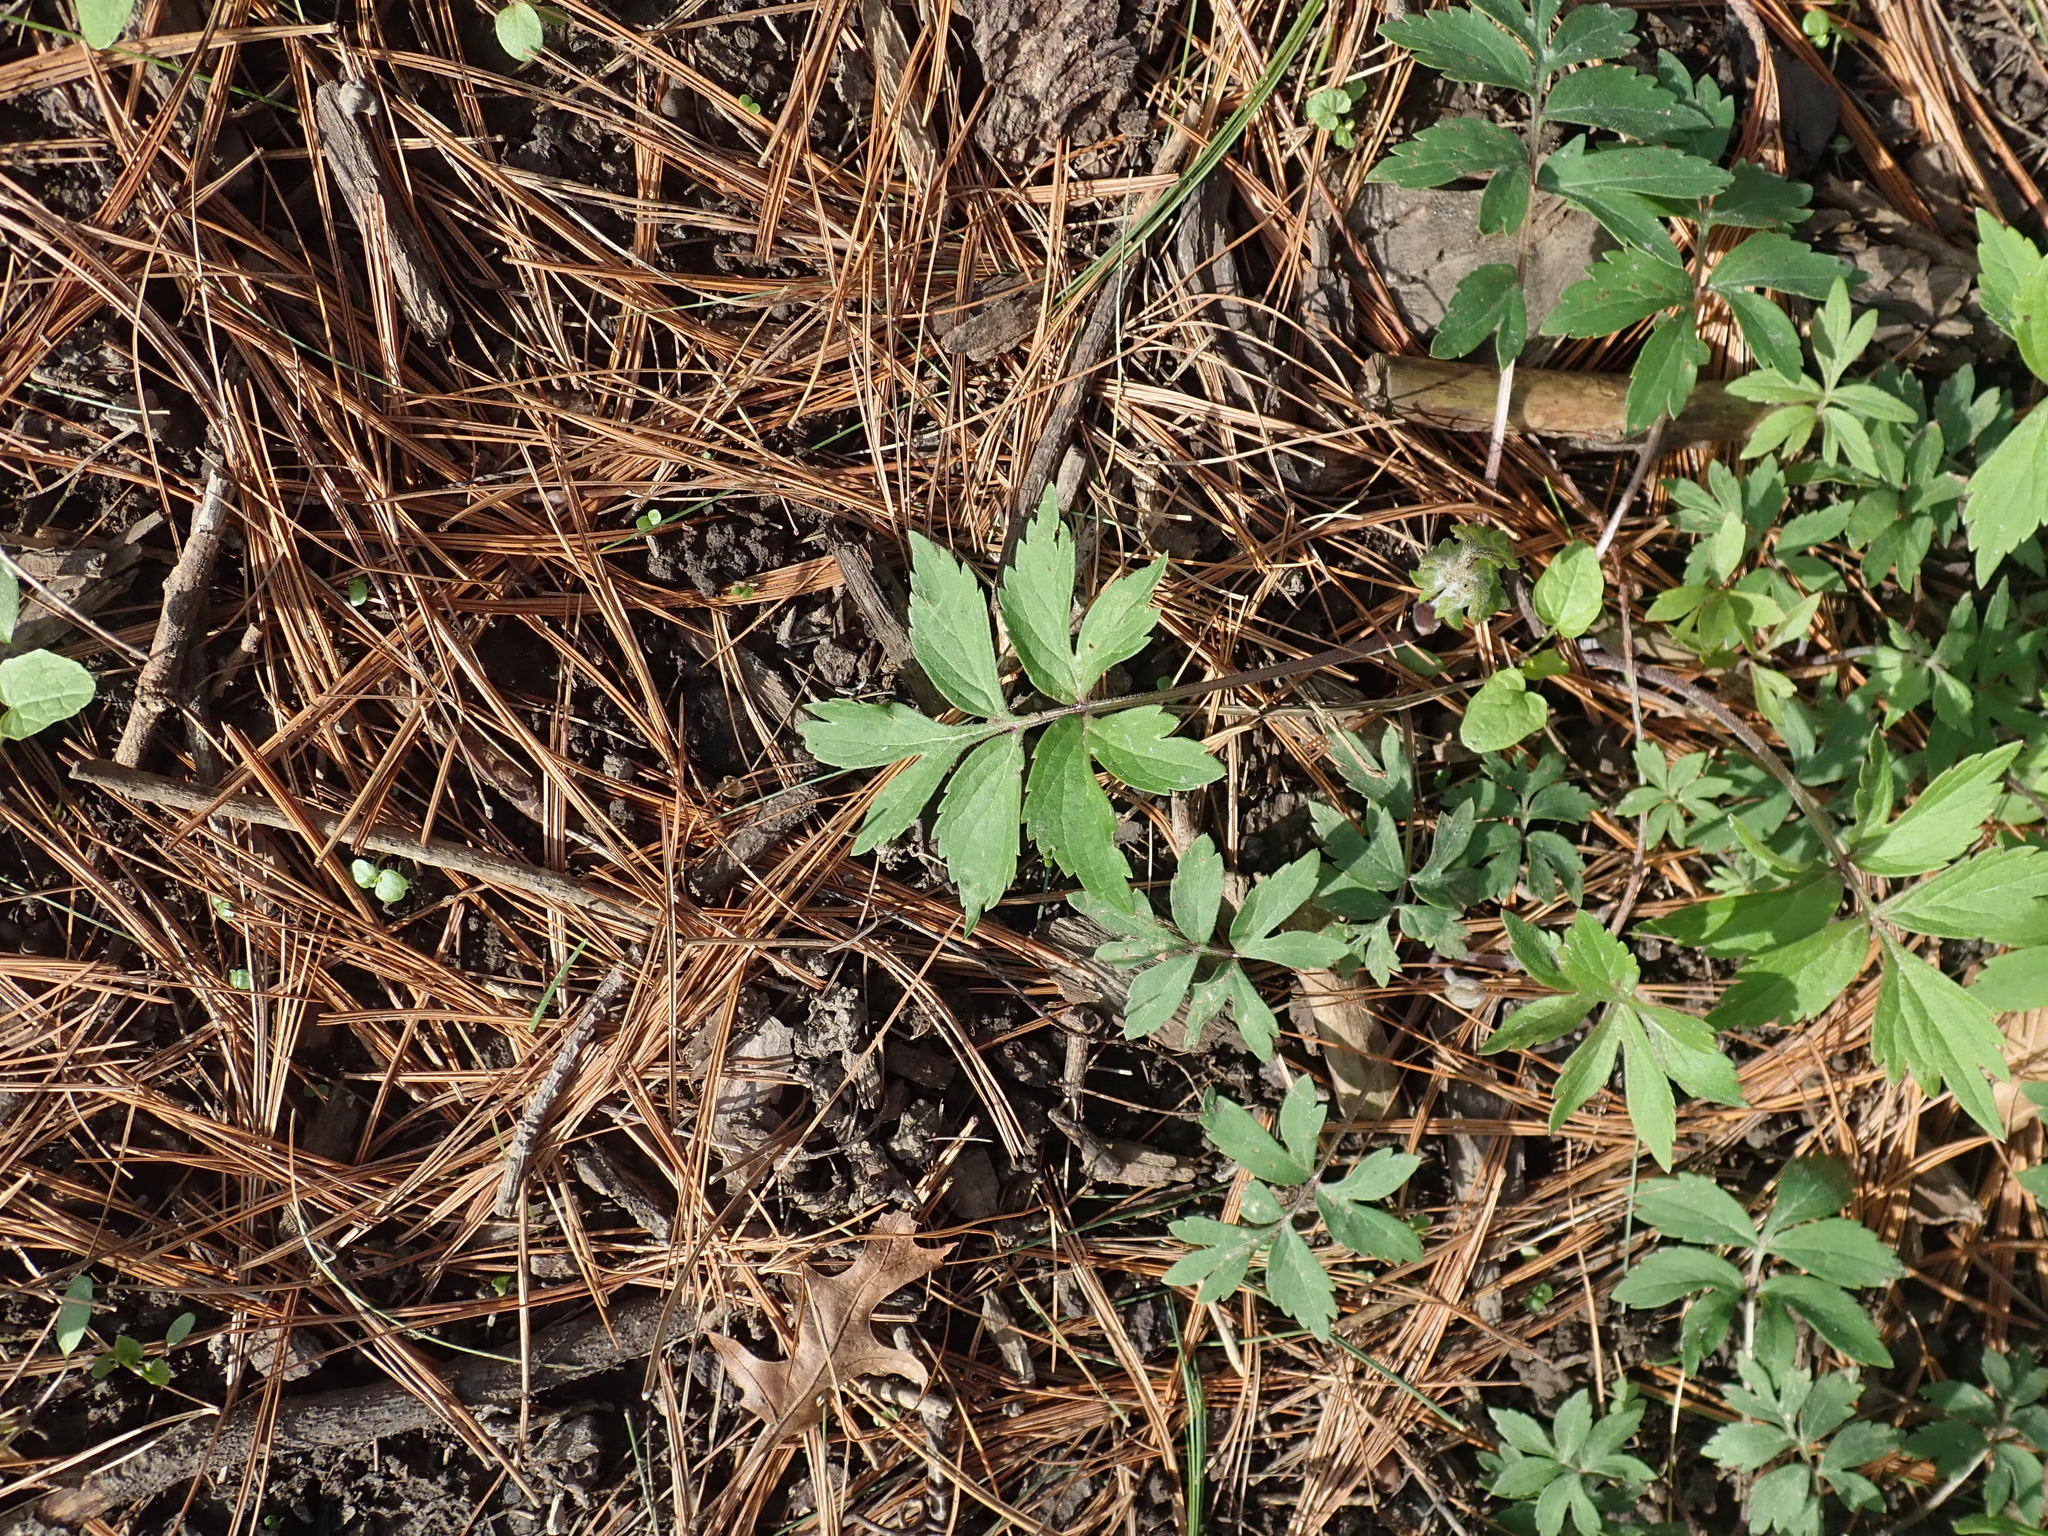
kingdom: Plantae
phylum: Tracheophyta
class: Magnoliopsida
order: Boraginales
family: Hydrophyllaceae
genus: Hydrophyllum
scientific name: Hydrophyllum virginianum
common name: Virginia waterleaf
